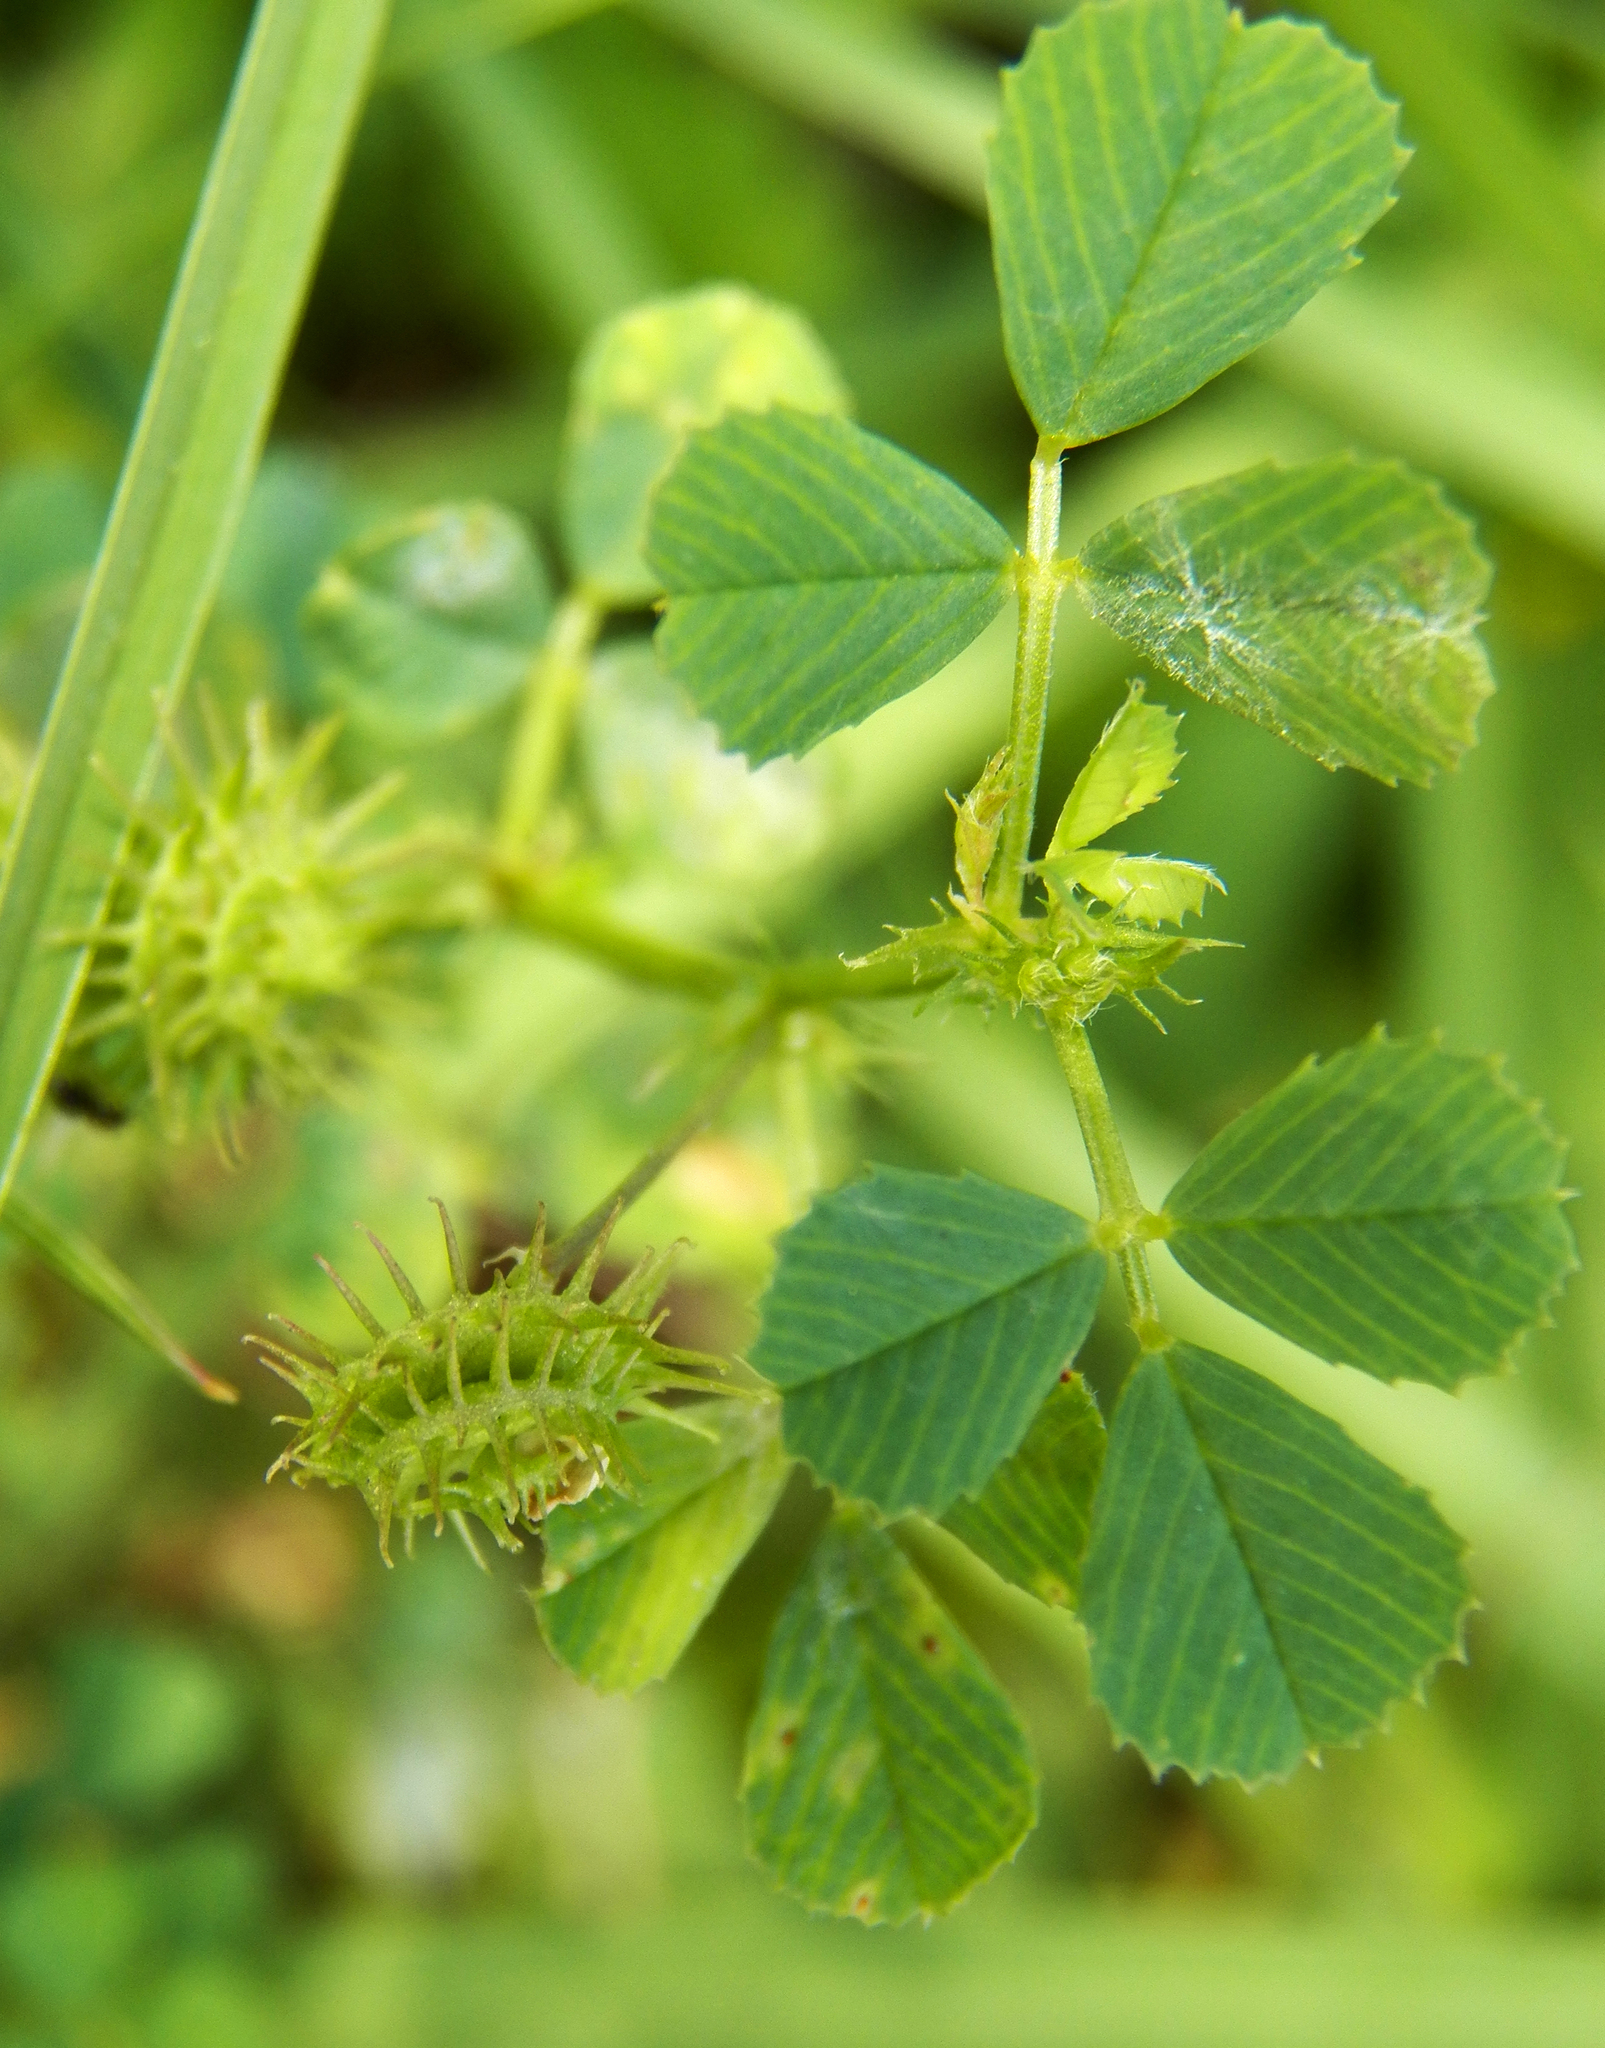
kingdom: Plantae
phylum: Tracheophyta
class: Magnoliopsida
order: Fabales
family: Fabaceae
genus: Medicago
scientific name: Medicago polymorpha
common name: Burclover
